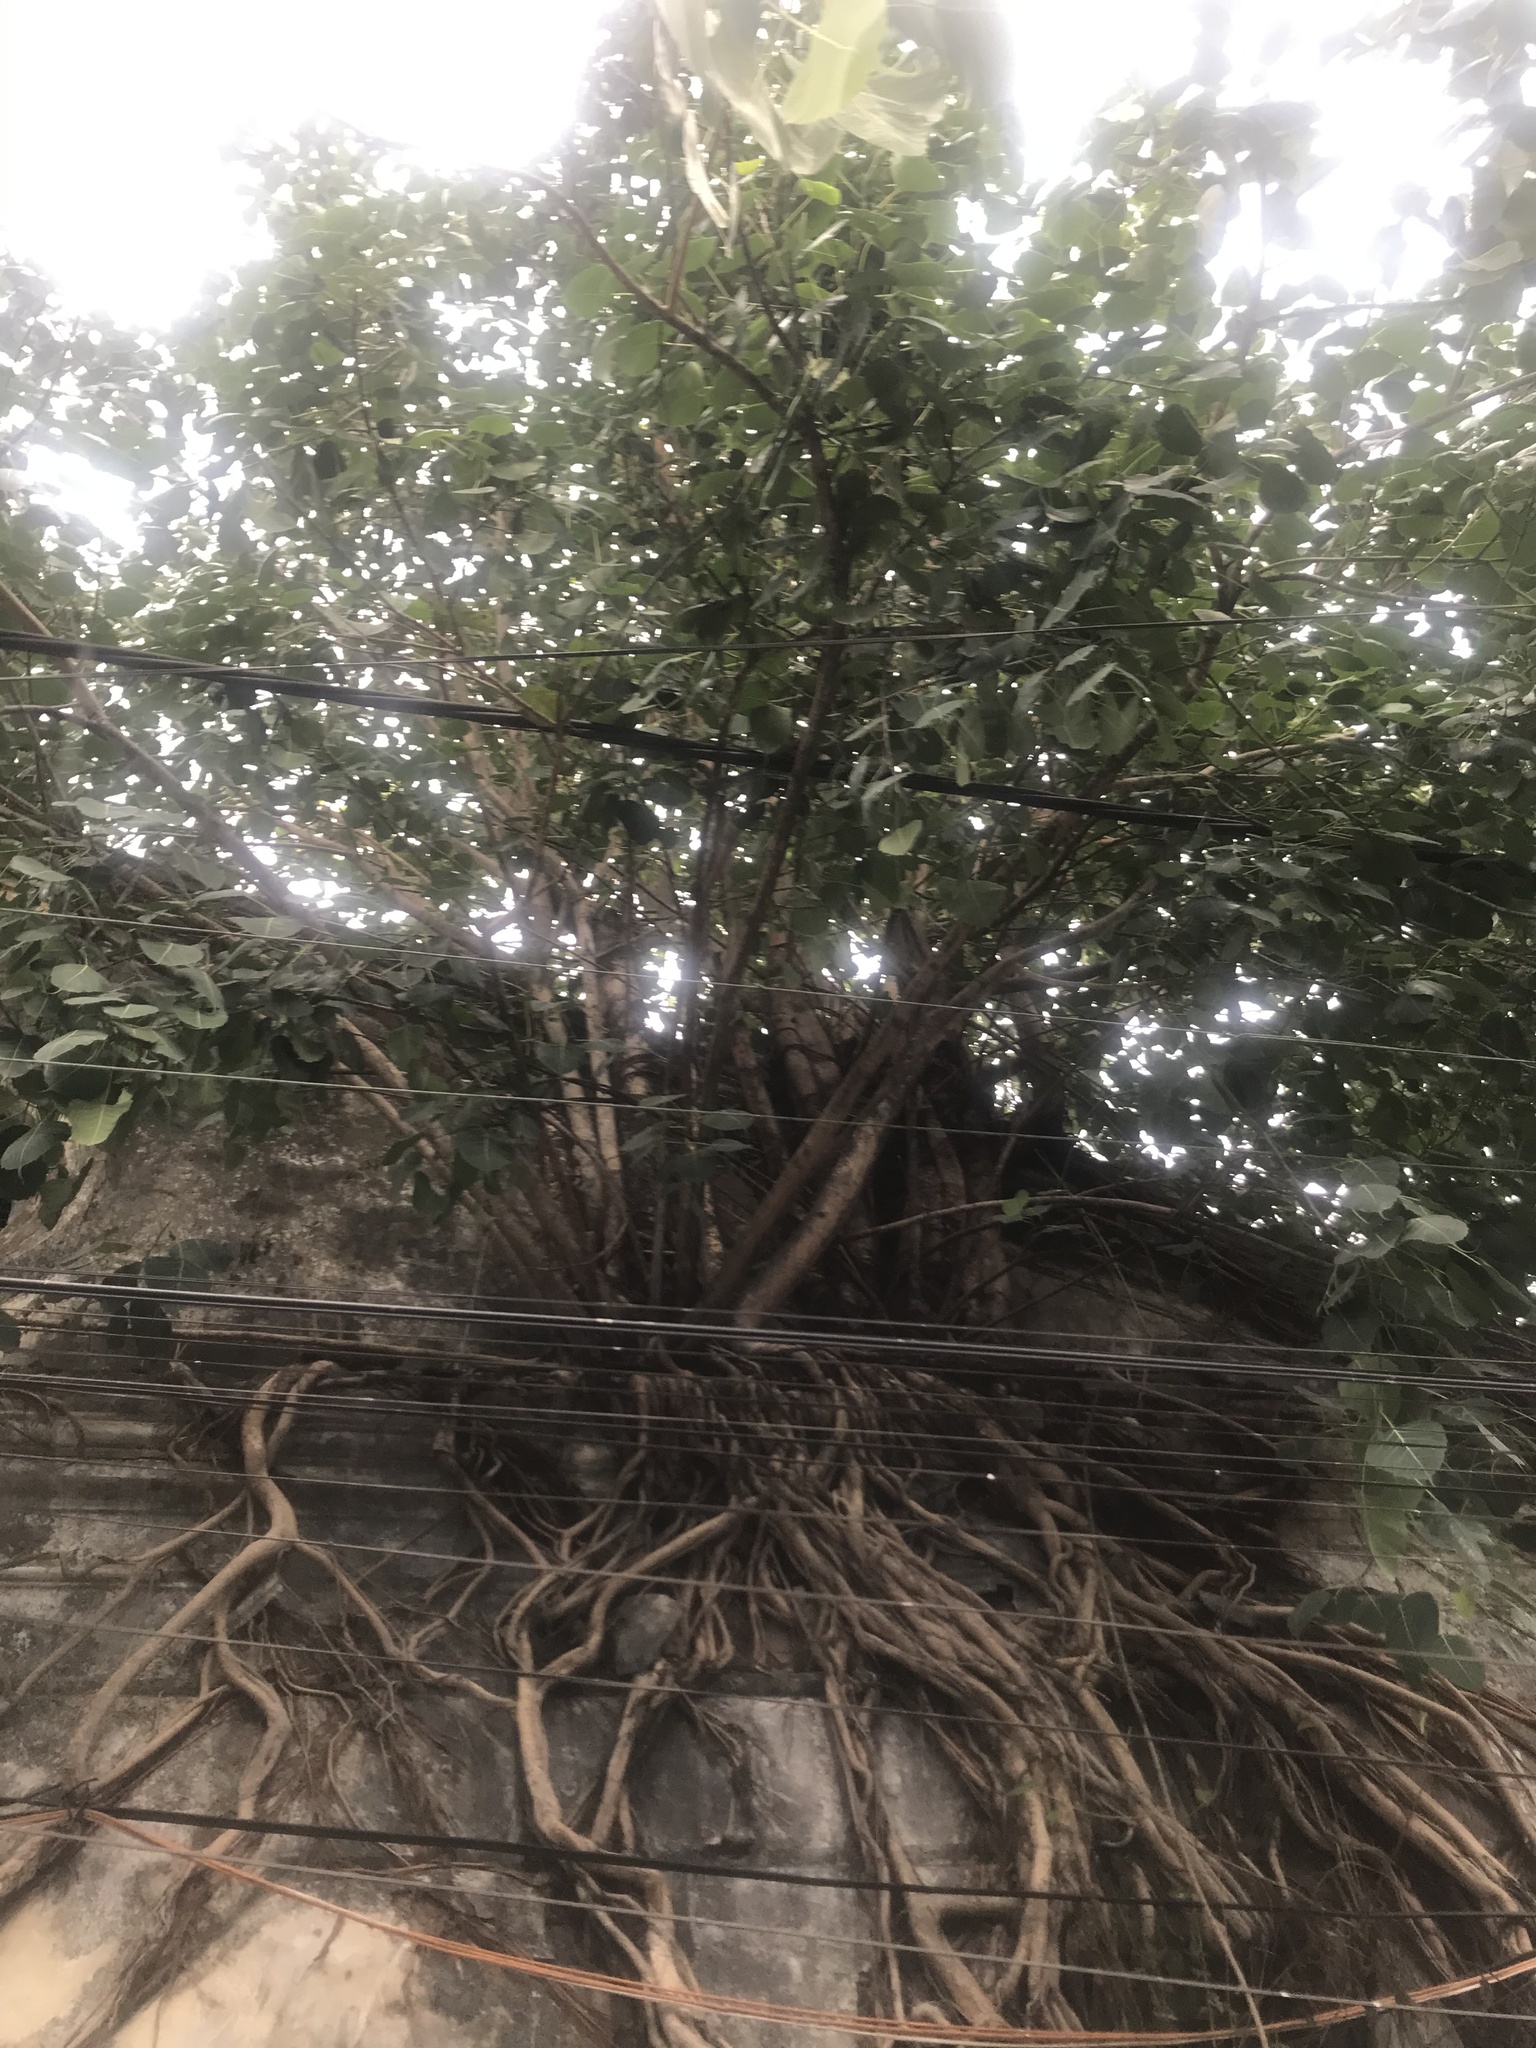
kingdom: Plantae
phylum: Tracheophyta
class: Magnoliopsida
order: Rosales
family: Moraceae
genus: Ficus
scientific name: Ficus religiosa
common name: Bodhi tree
